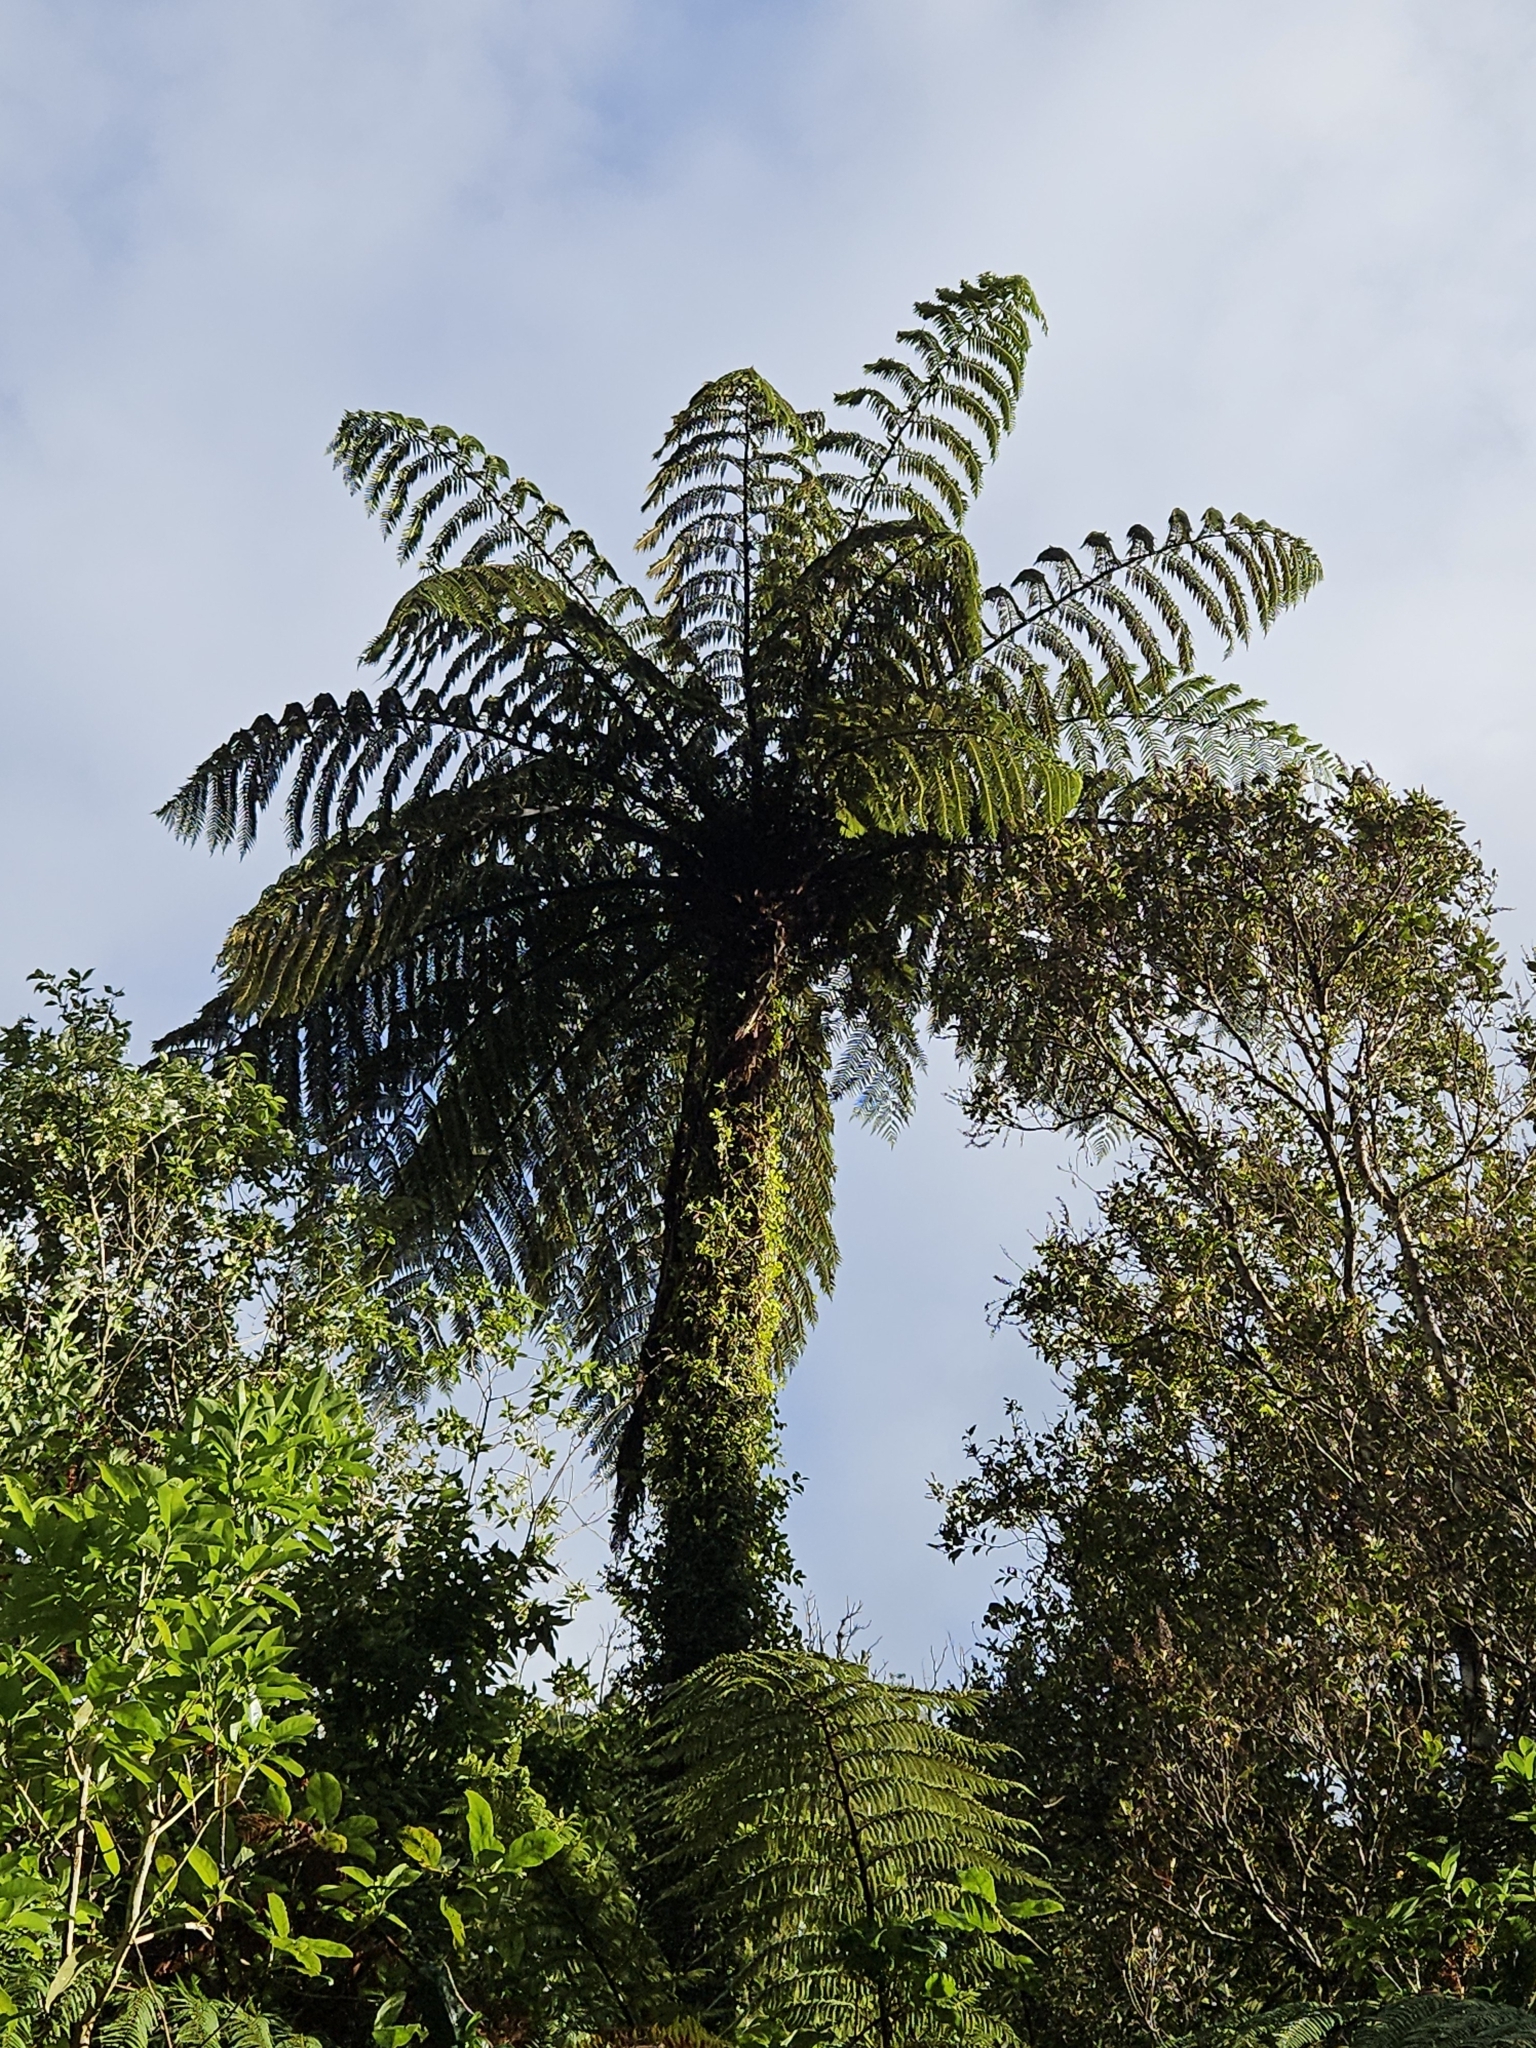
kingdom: Plantae
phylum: Tracheophyta
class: Polypodiopsida
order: Cyatheales
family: Cyatheaceae
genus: Sphaeropteris
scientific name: Sphaeropteris medullaris
